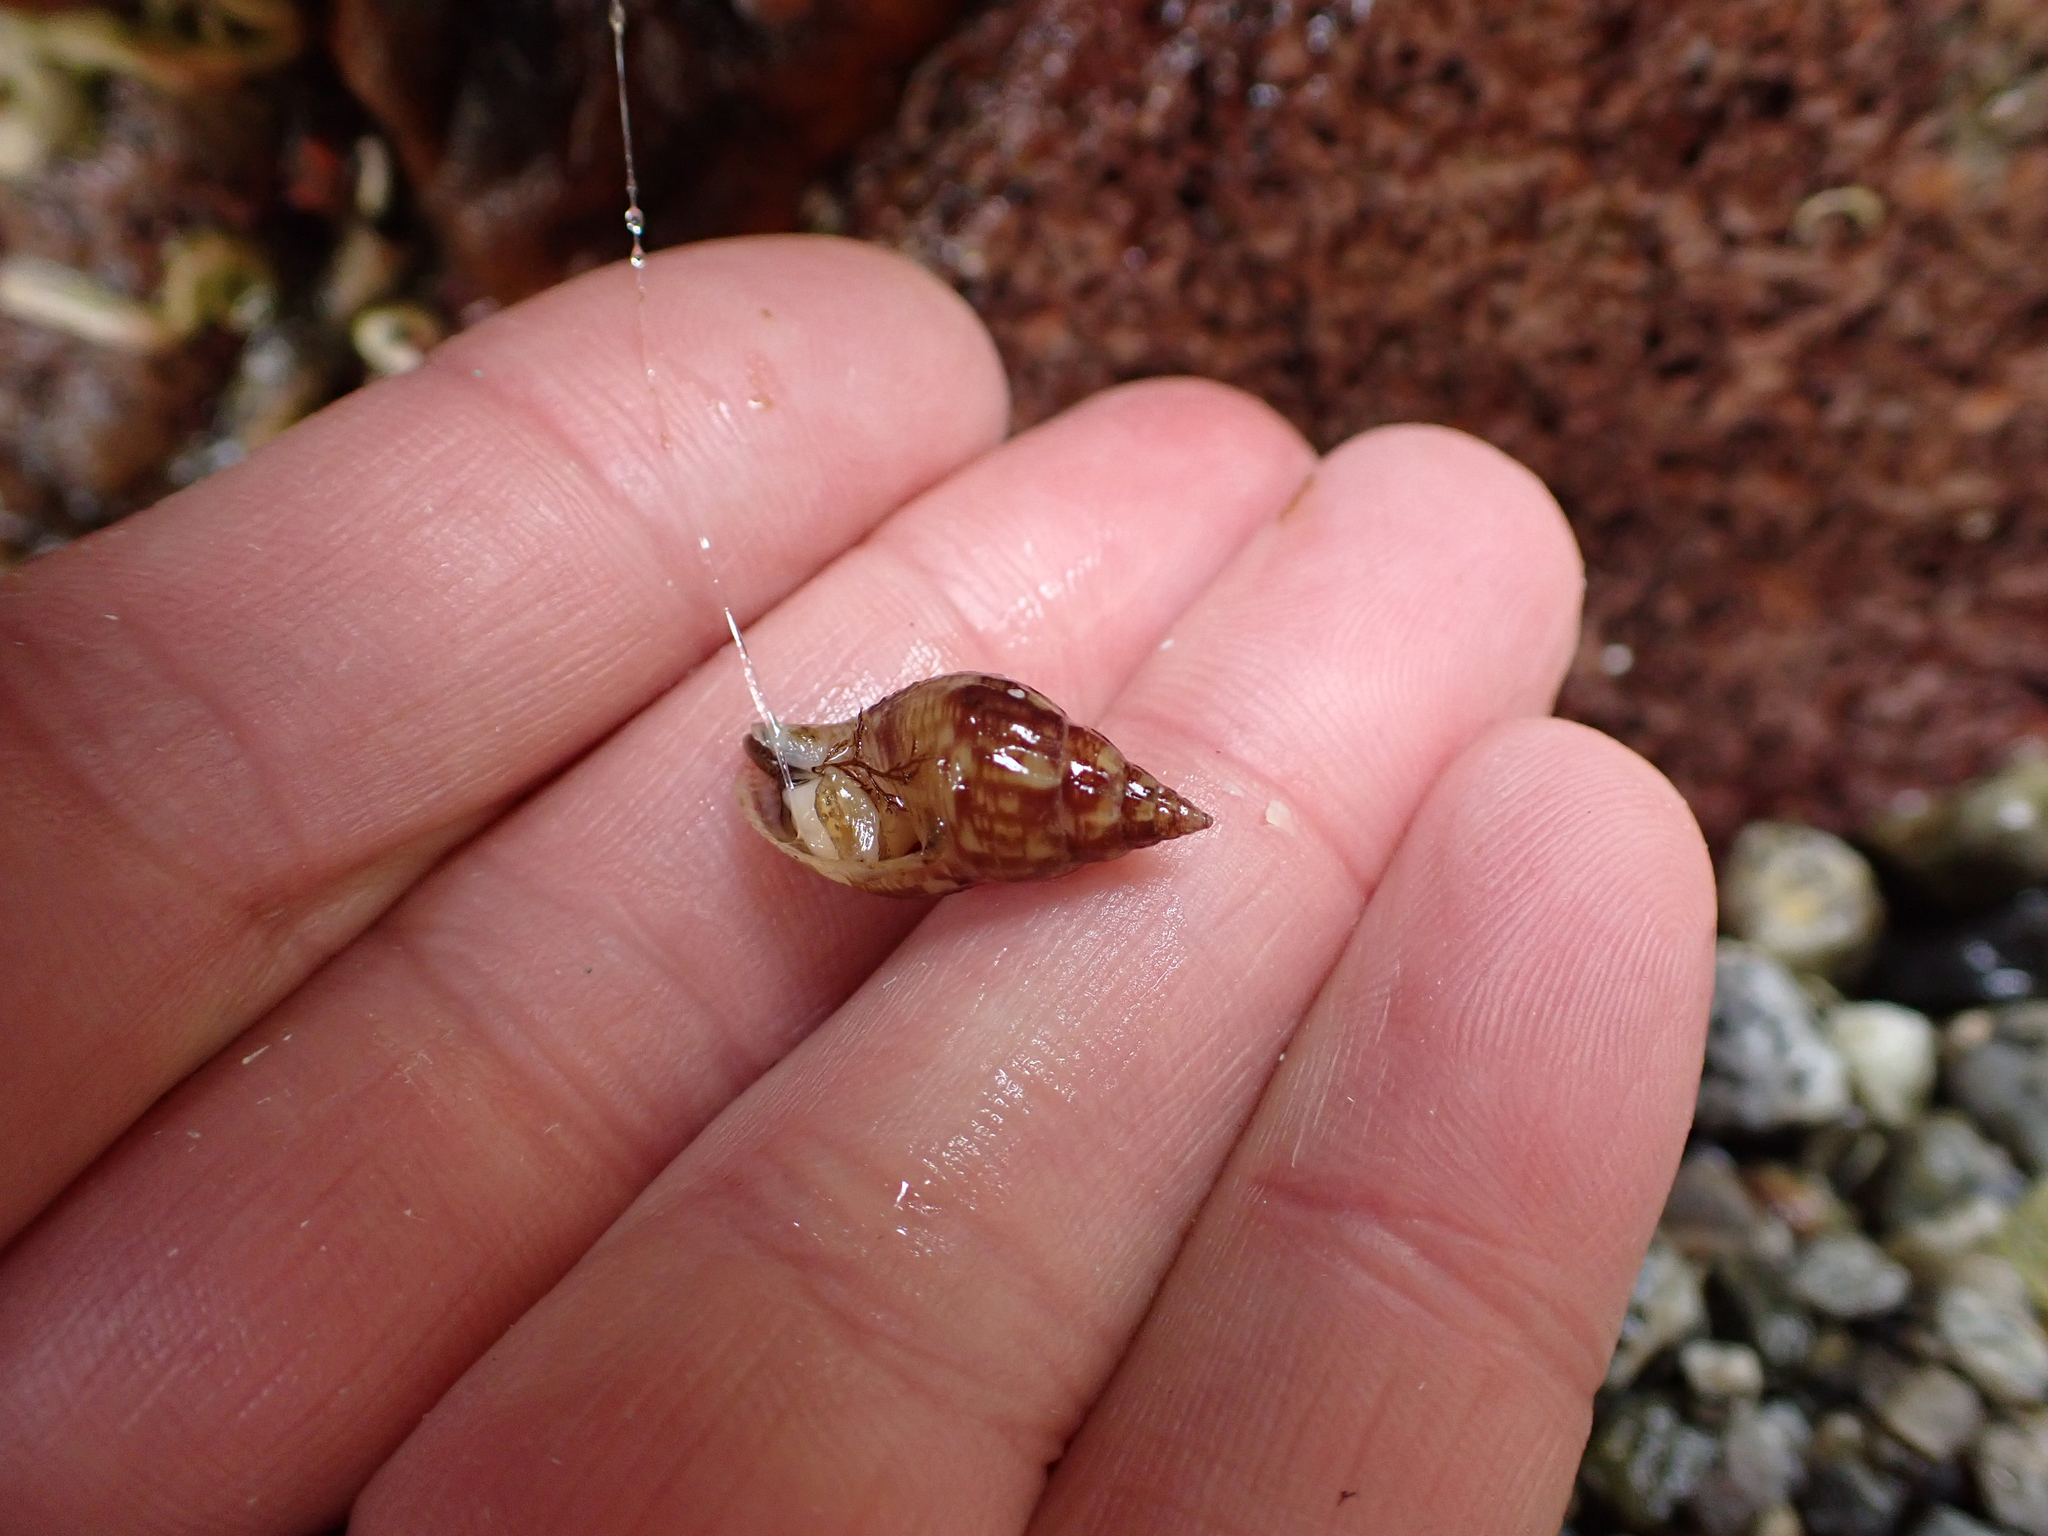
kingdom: Animalia
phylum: Mollusca
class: Gastropoda
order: Neogastropoda
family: Columbellidae
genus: Amphissa
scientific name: Amphissa columbiana
